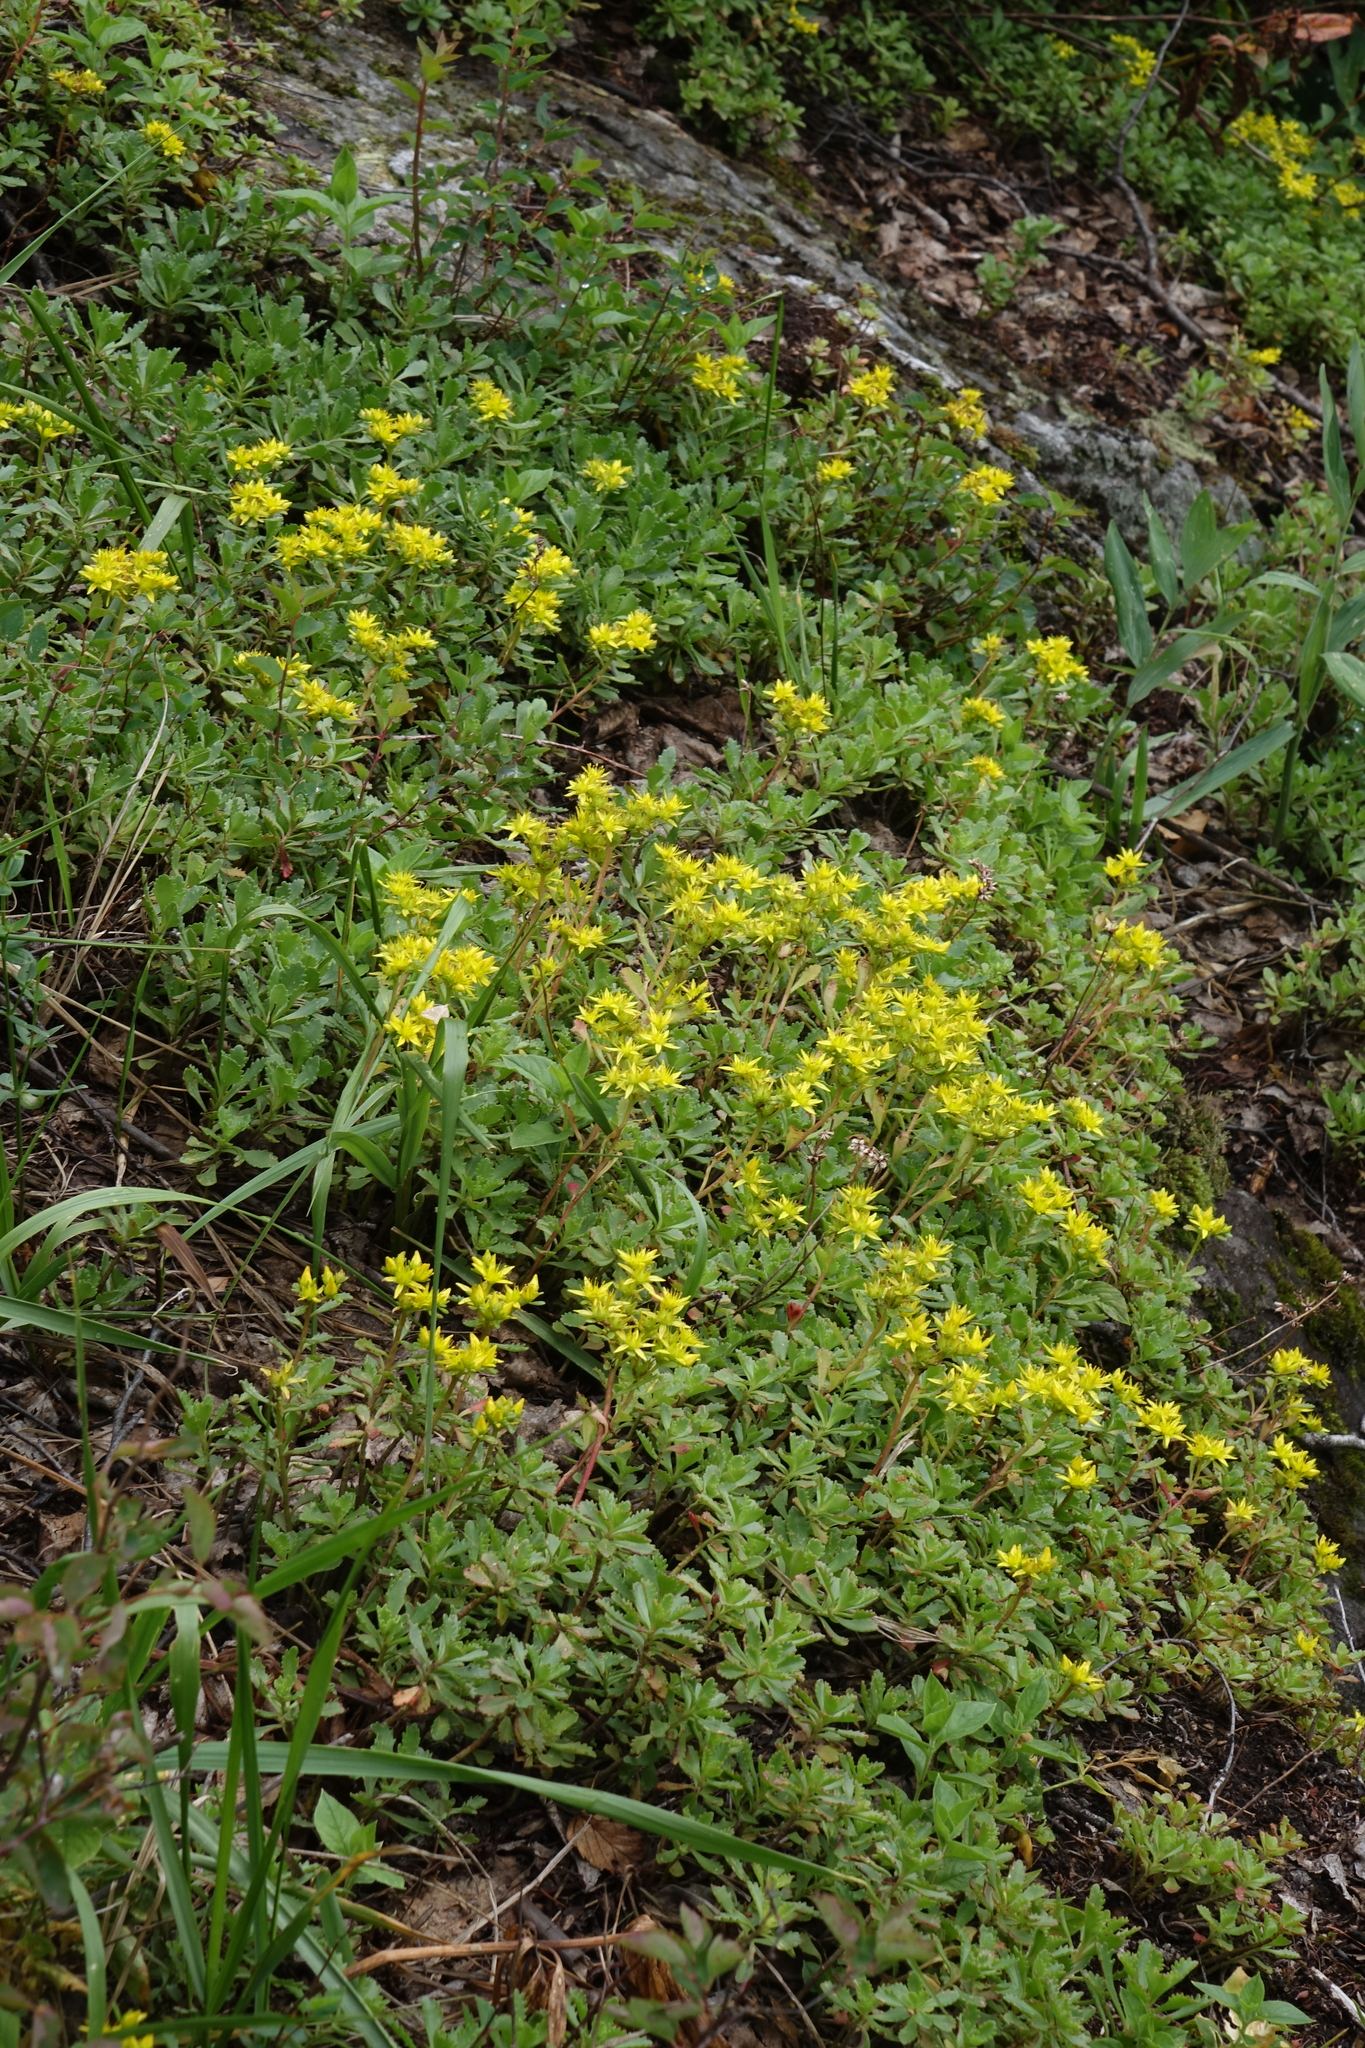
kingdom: Plantae
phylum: Tracheophyta
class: Magnoliopsida
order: Saxifragales
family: Crassulaceae
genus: Phedimus
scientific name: Phedimus hybridus
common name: Hybrid stonecrop
